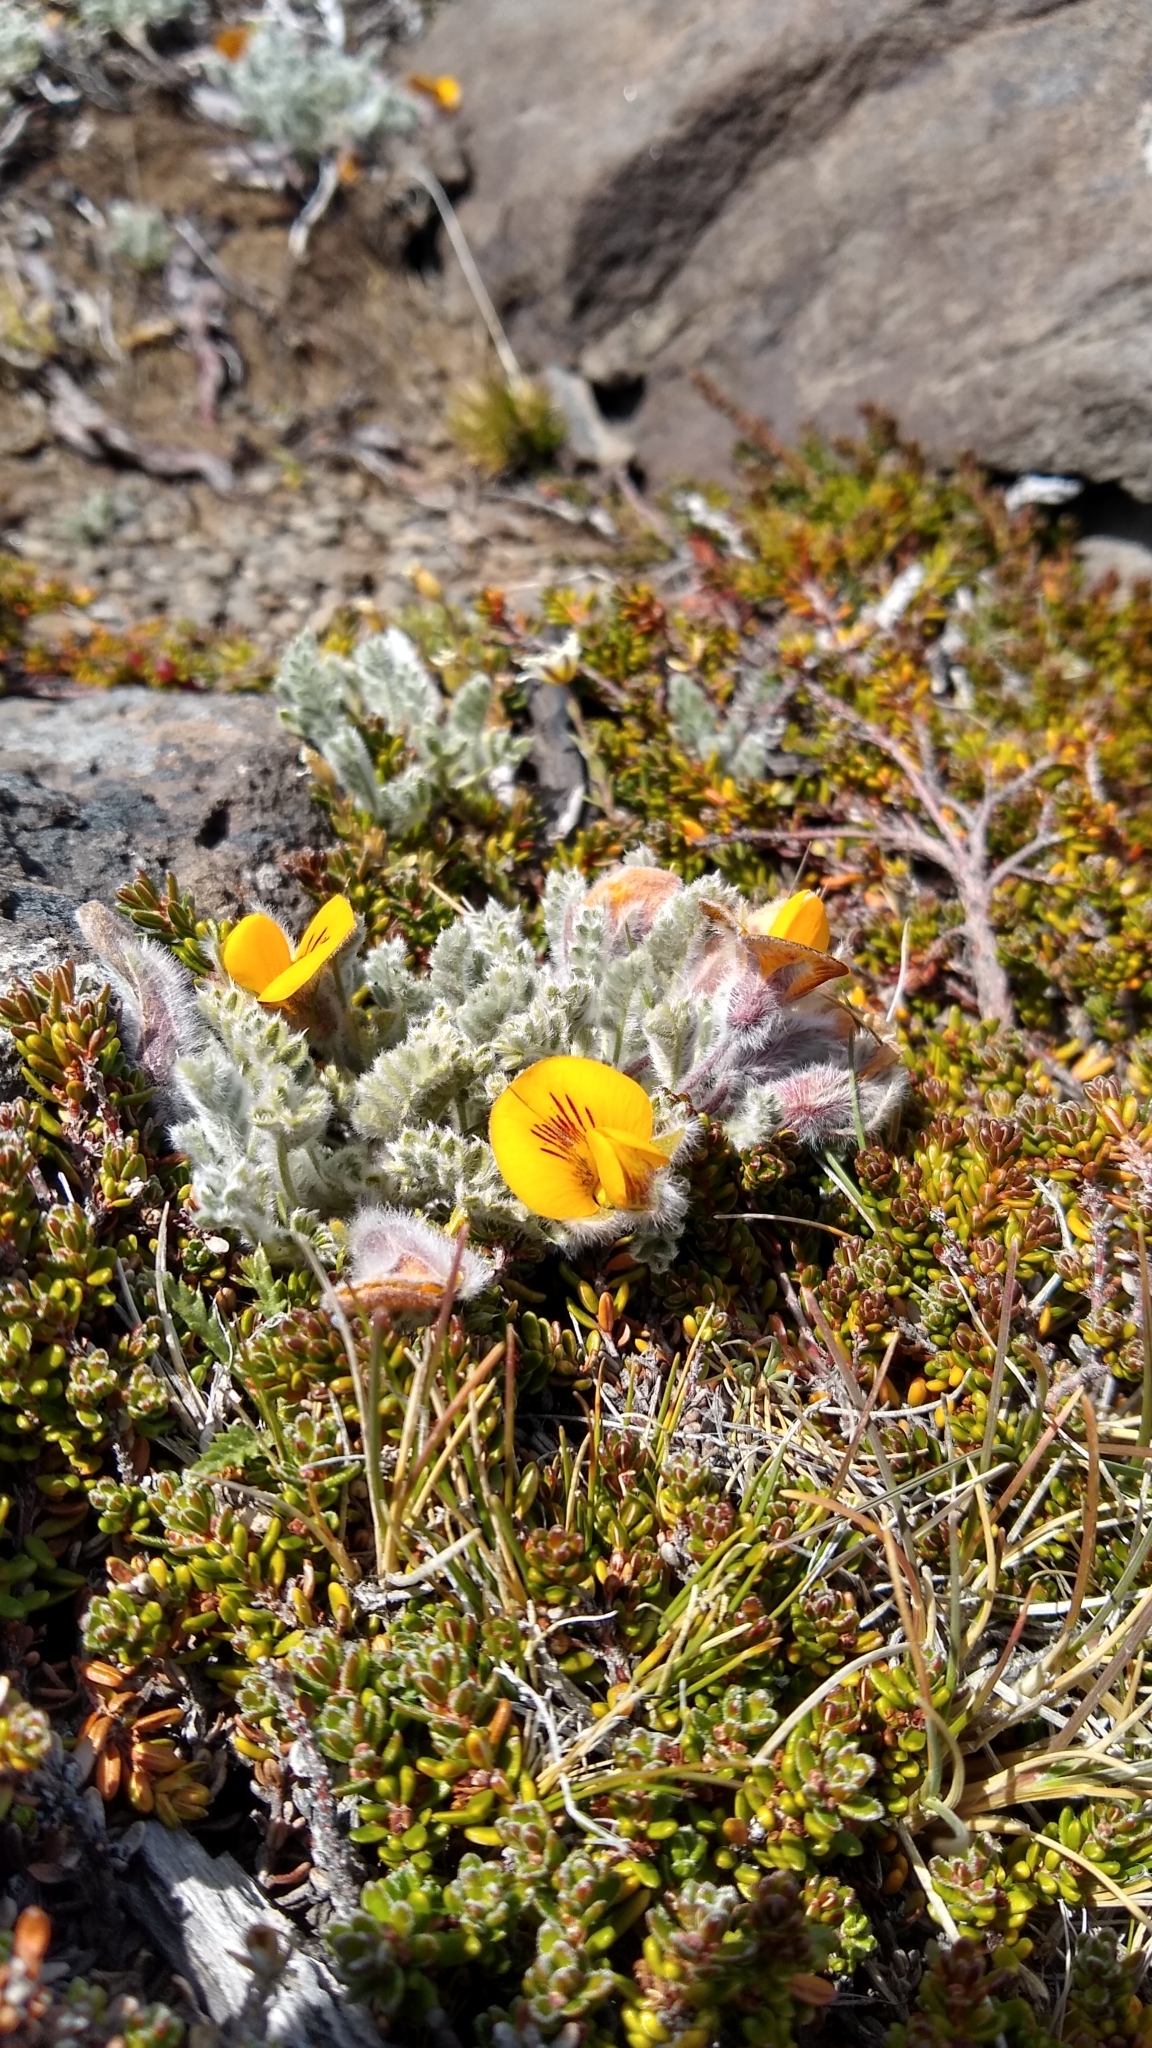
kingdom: Plantae
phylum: Tracheophyta
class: Magnoliopsida
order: Fabales
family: Fabaceae
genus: Adesmia
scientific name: Adesmia villosa
